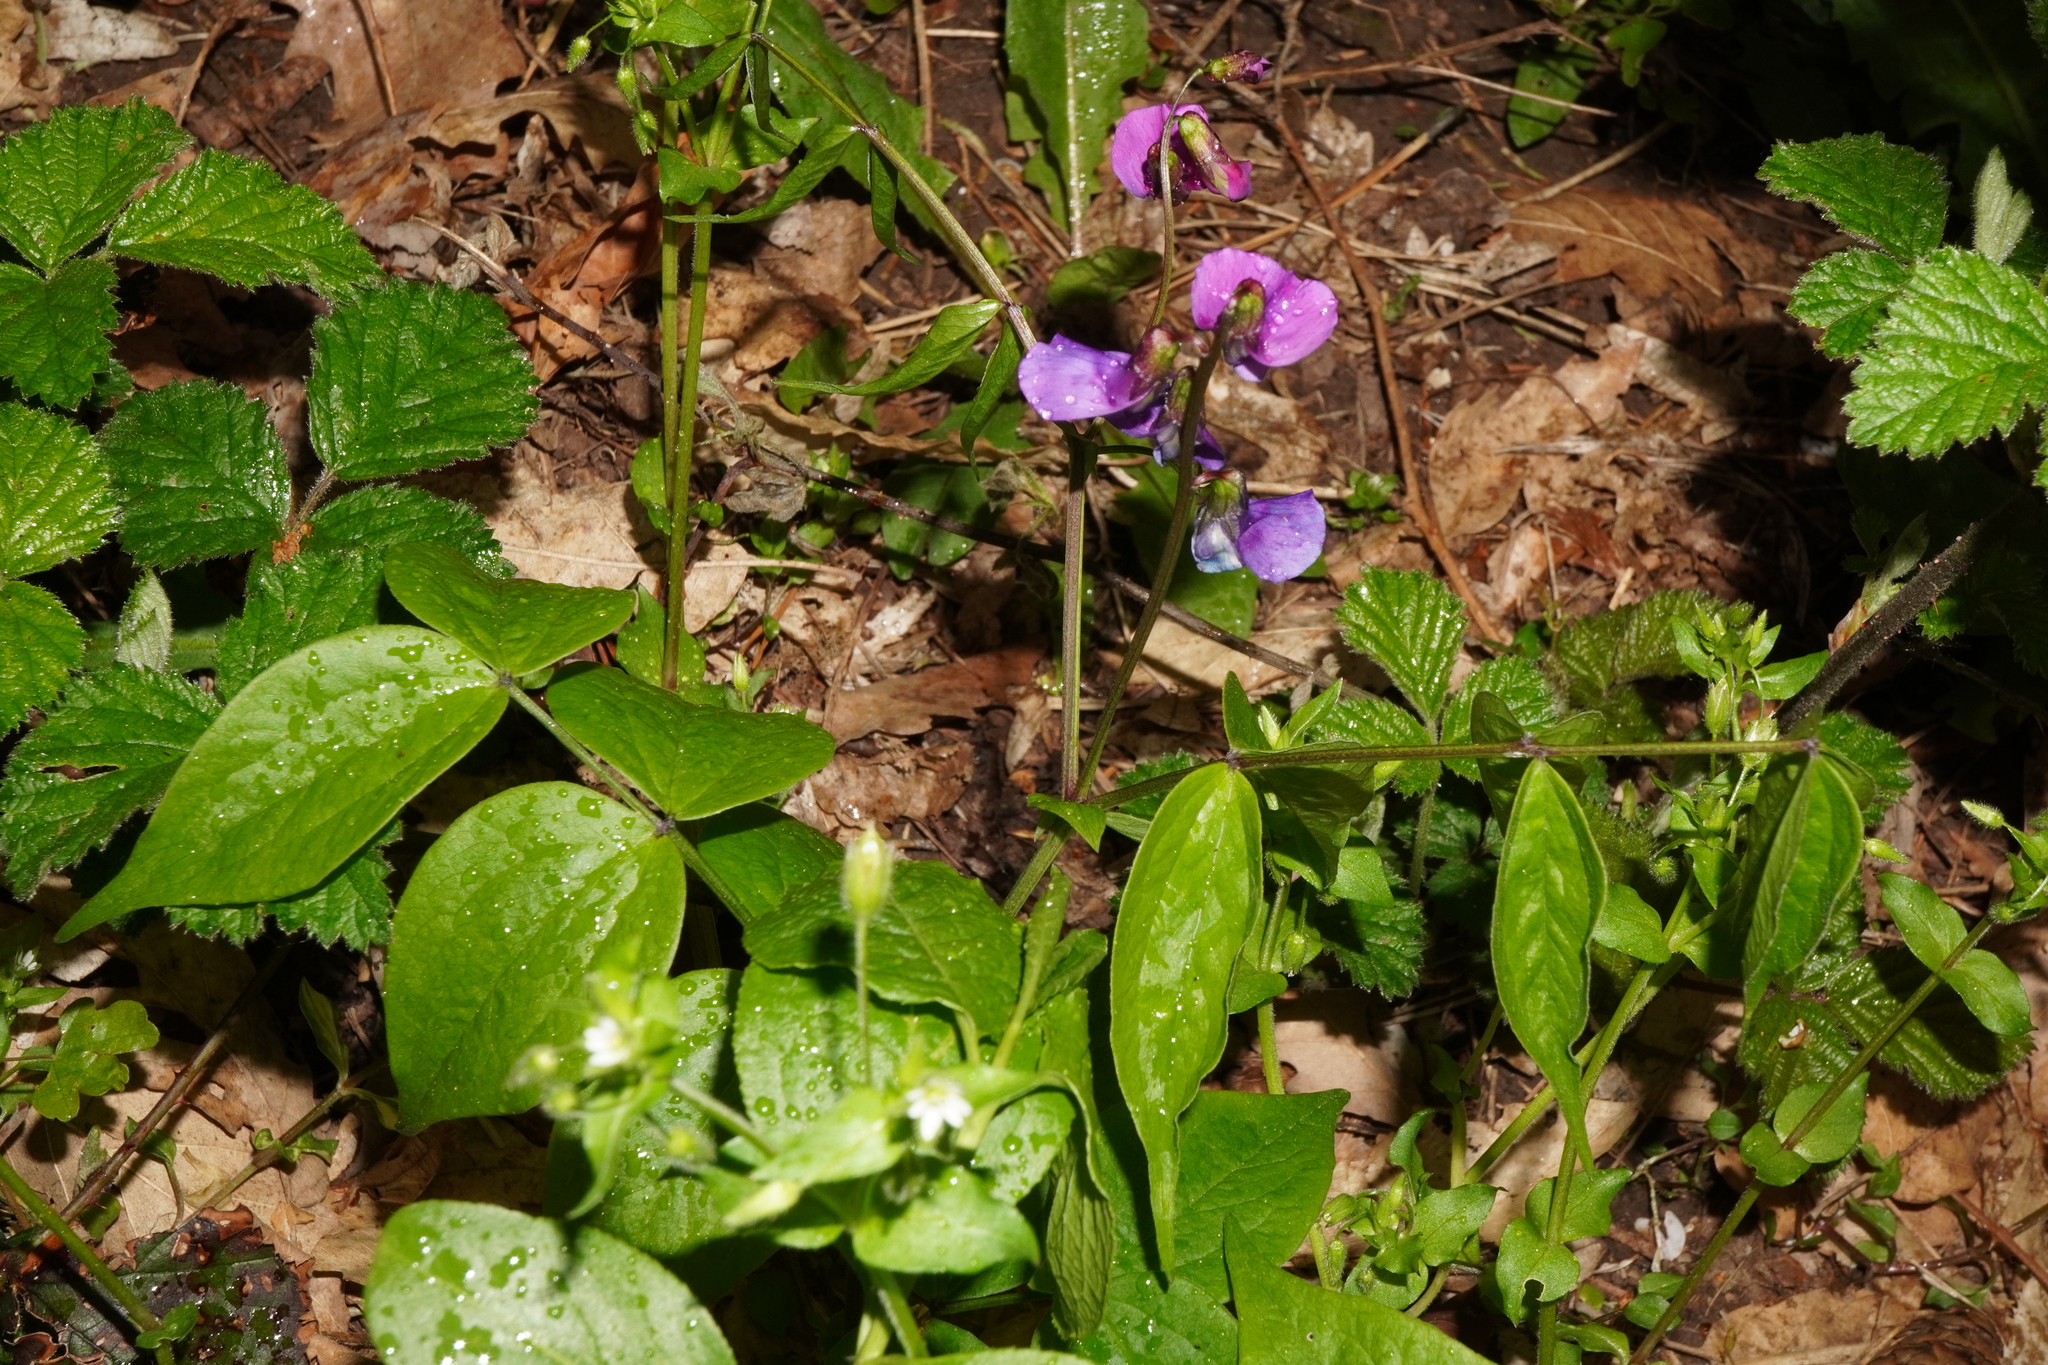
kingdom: Plantae
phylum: Tracheophyta
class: Magnoliopsida
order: Fabales
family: Fabaceae
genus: Lathyrus
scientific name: Lathyrus vernus
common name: Spring pea
